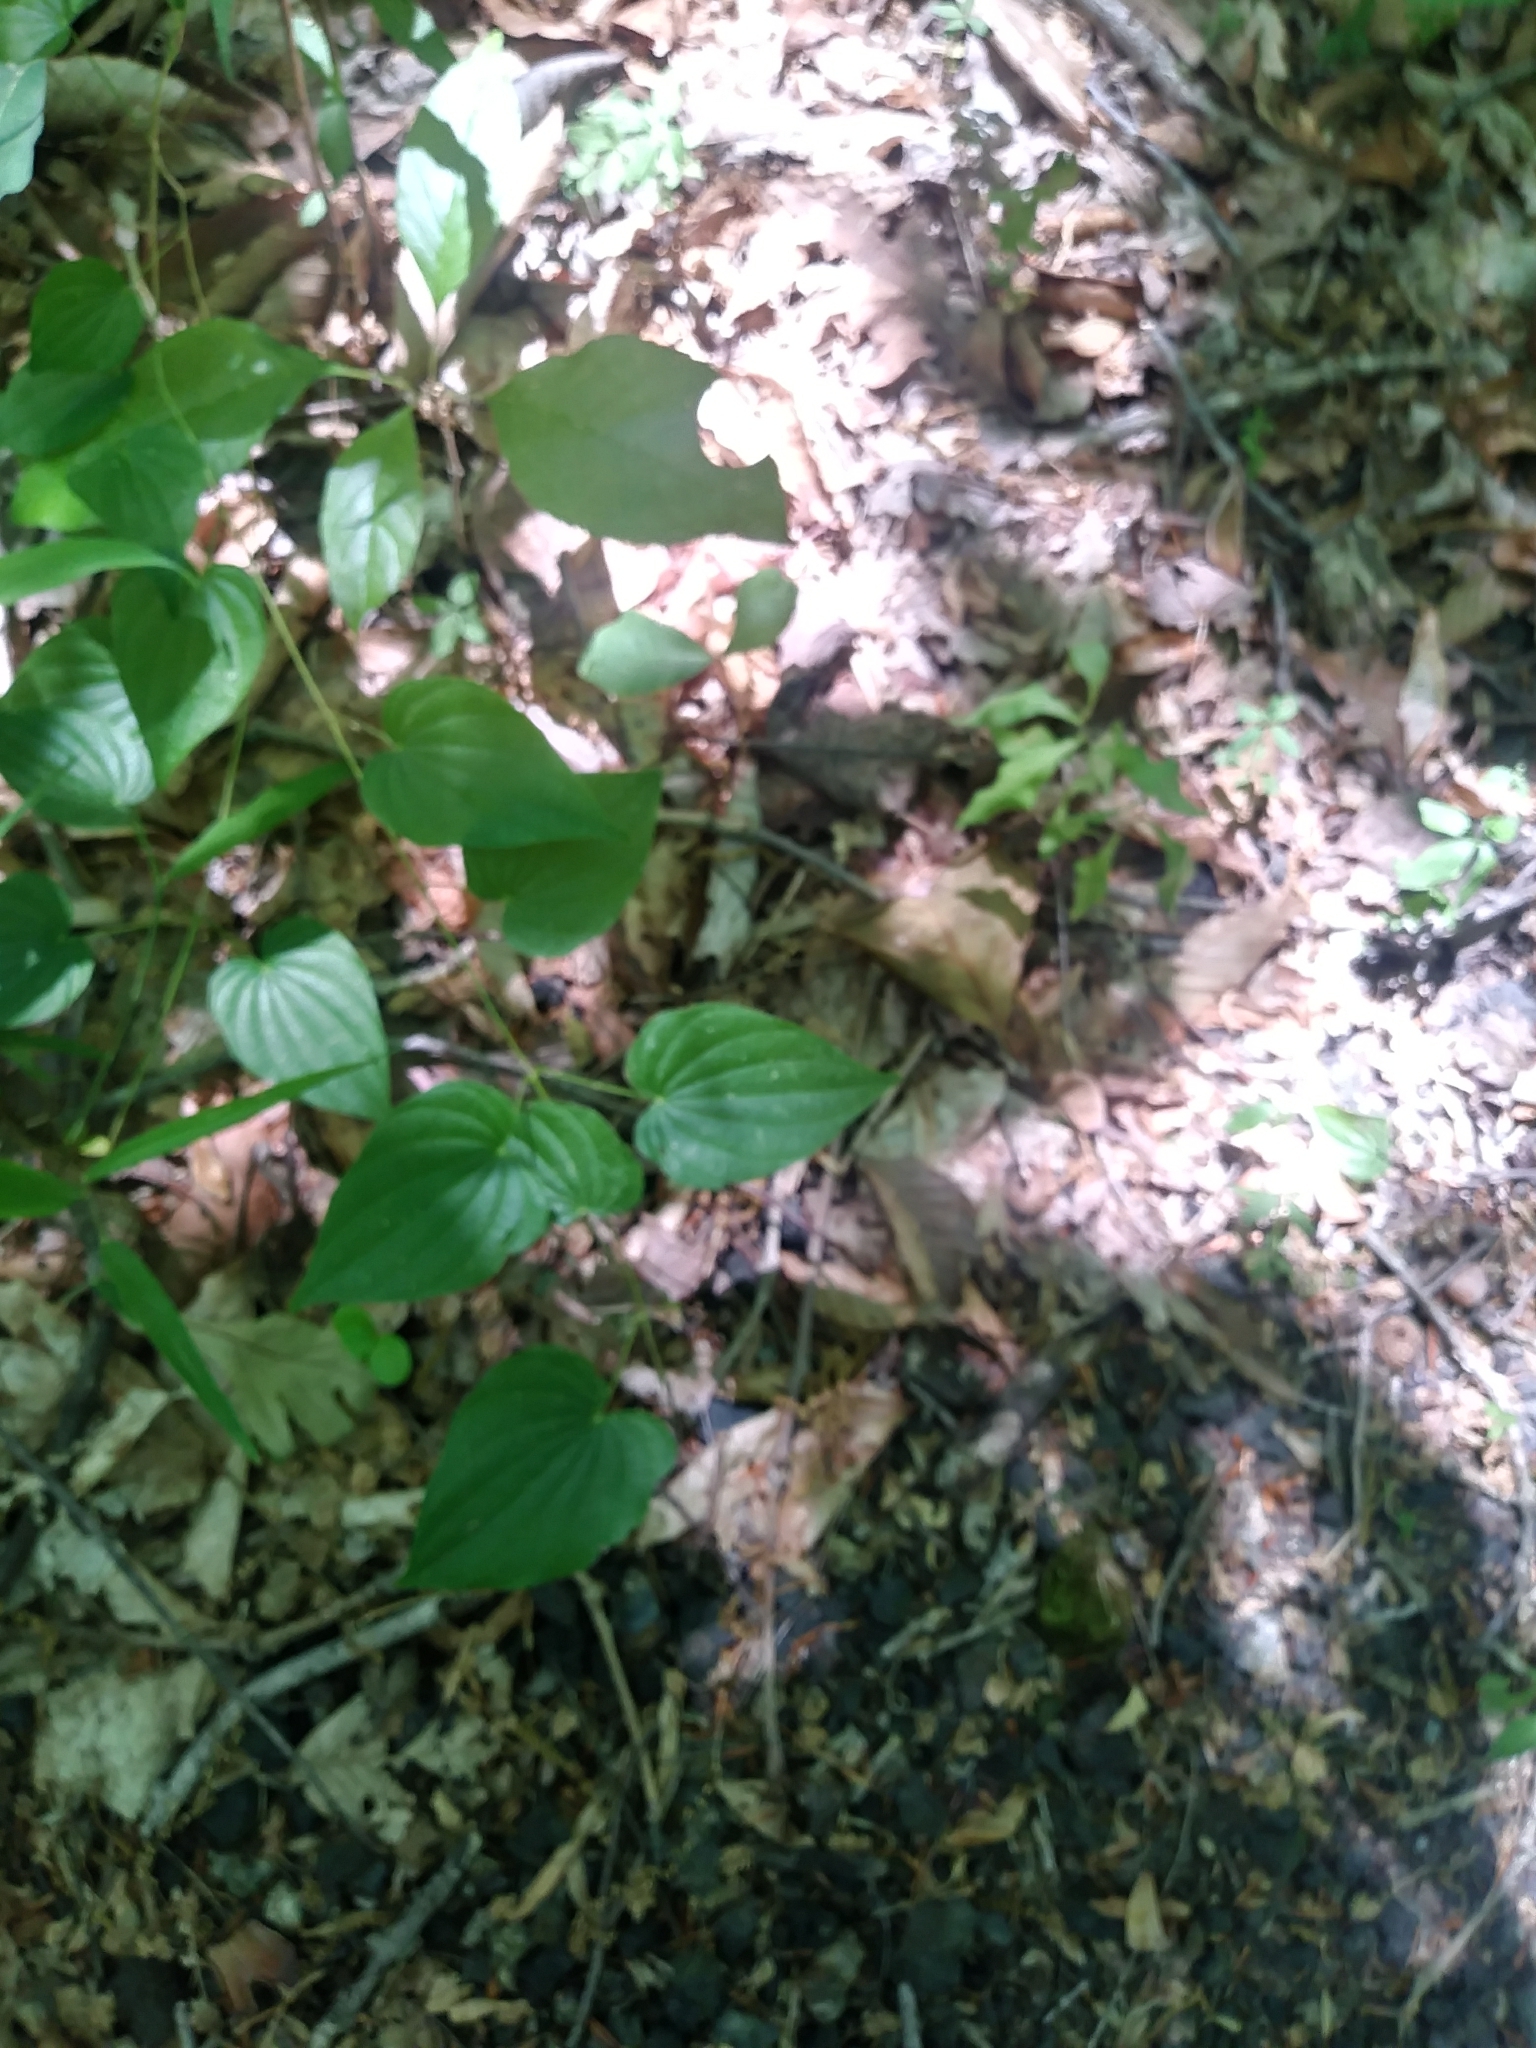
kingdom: Plantae
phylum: Tracheophyta
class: Liliopsida
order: Dioscoreales
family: Dioscoreaceae
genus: Dioscorea
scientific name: Dioscorea villosa
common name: Wild yam
